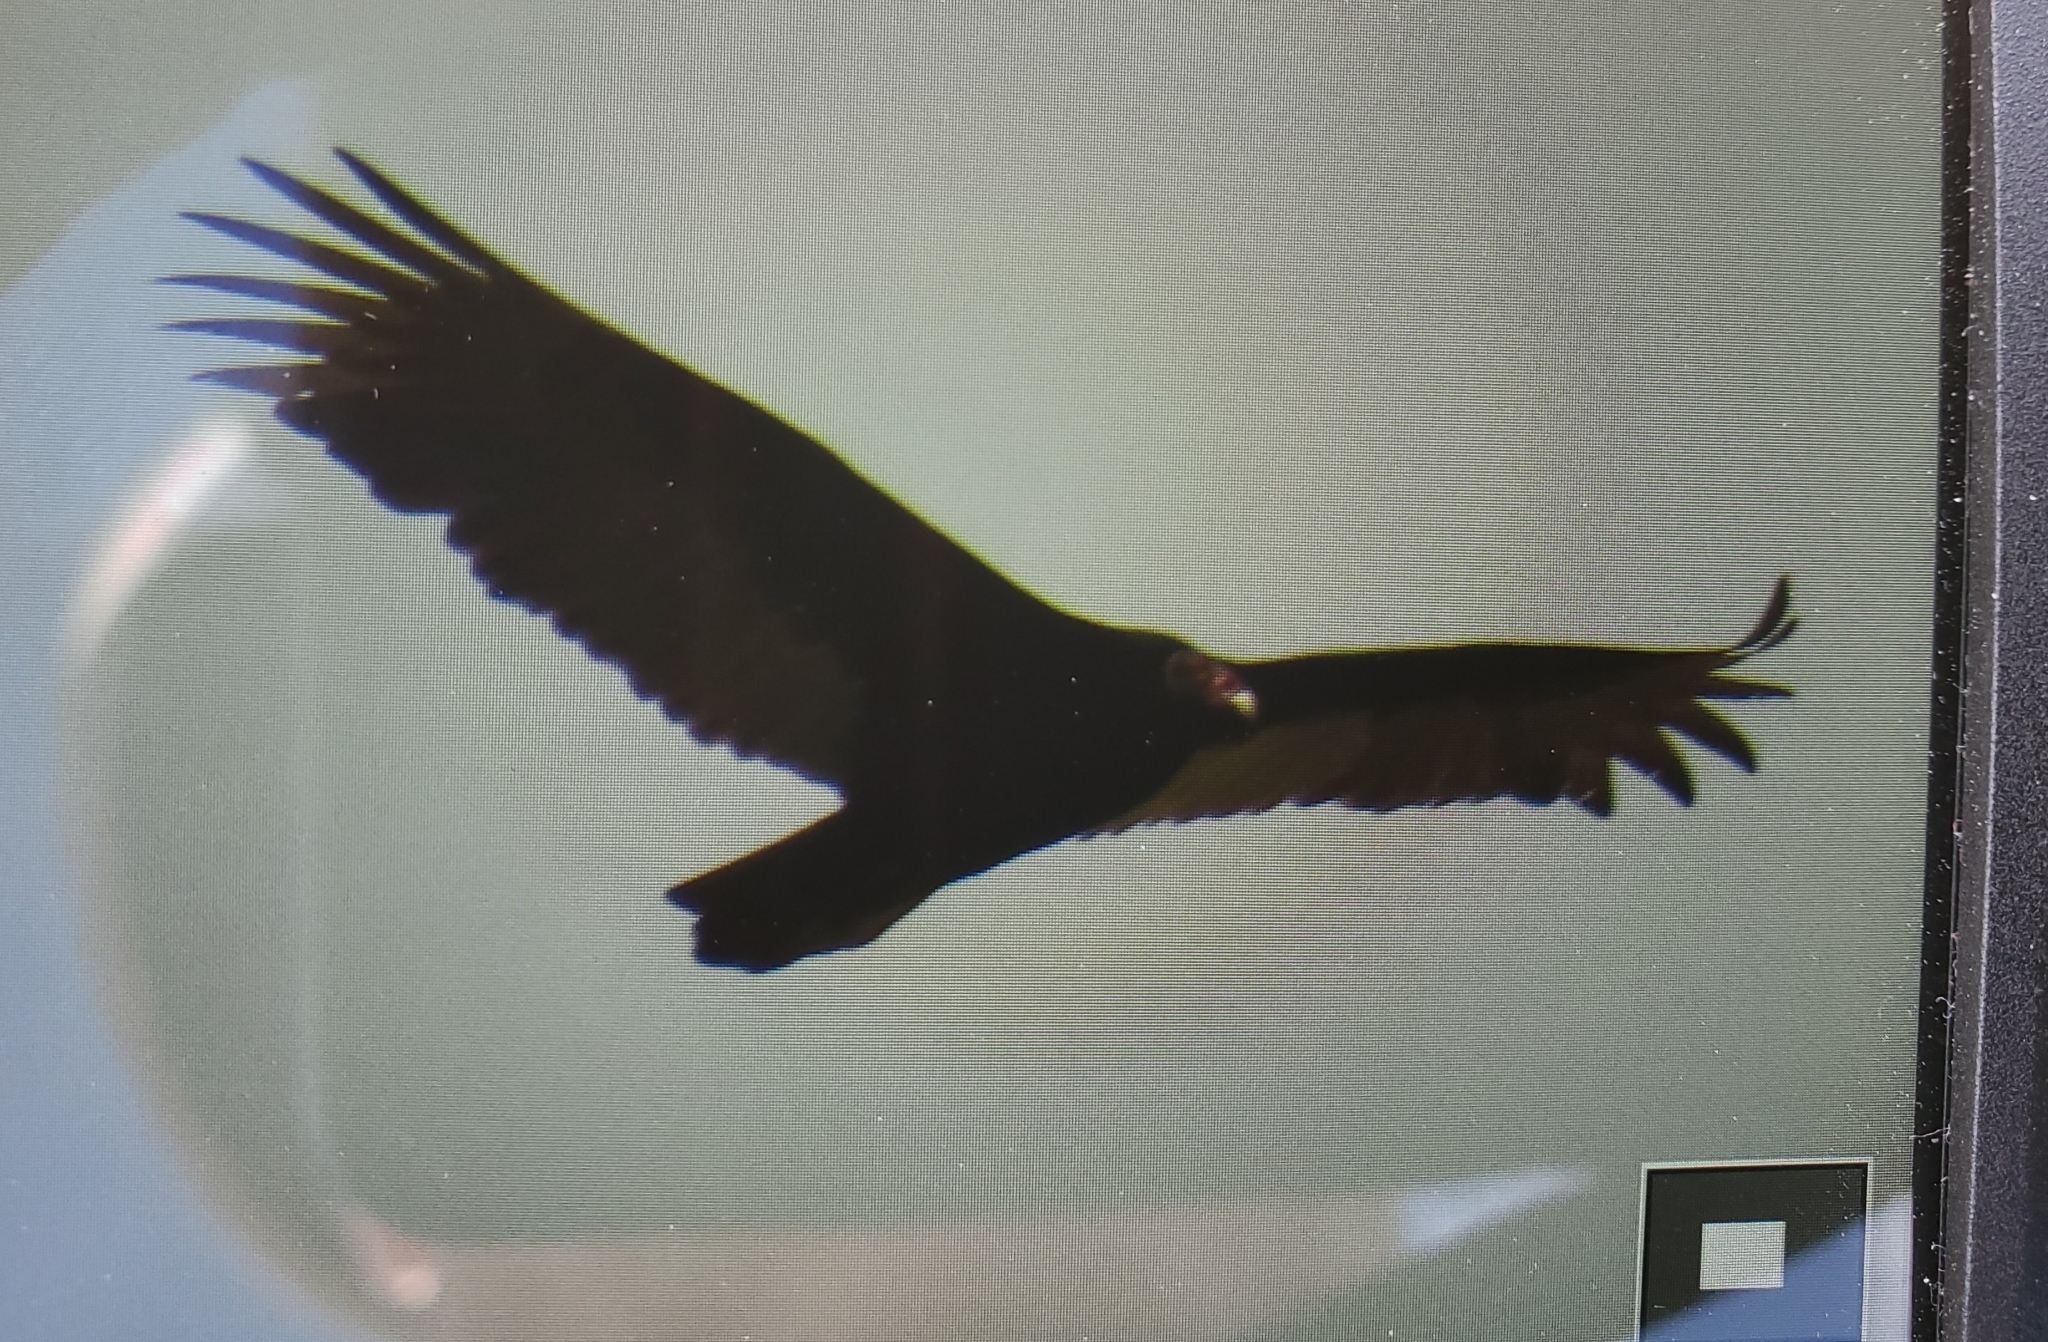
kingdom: Animalia
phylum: Chordata
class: Aves
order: Accipitriformes
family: Cathartidae
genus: Cathartes
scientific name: Cathartes aura
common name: Turkey vulture
